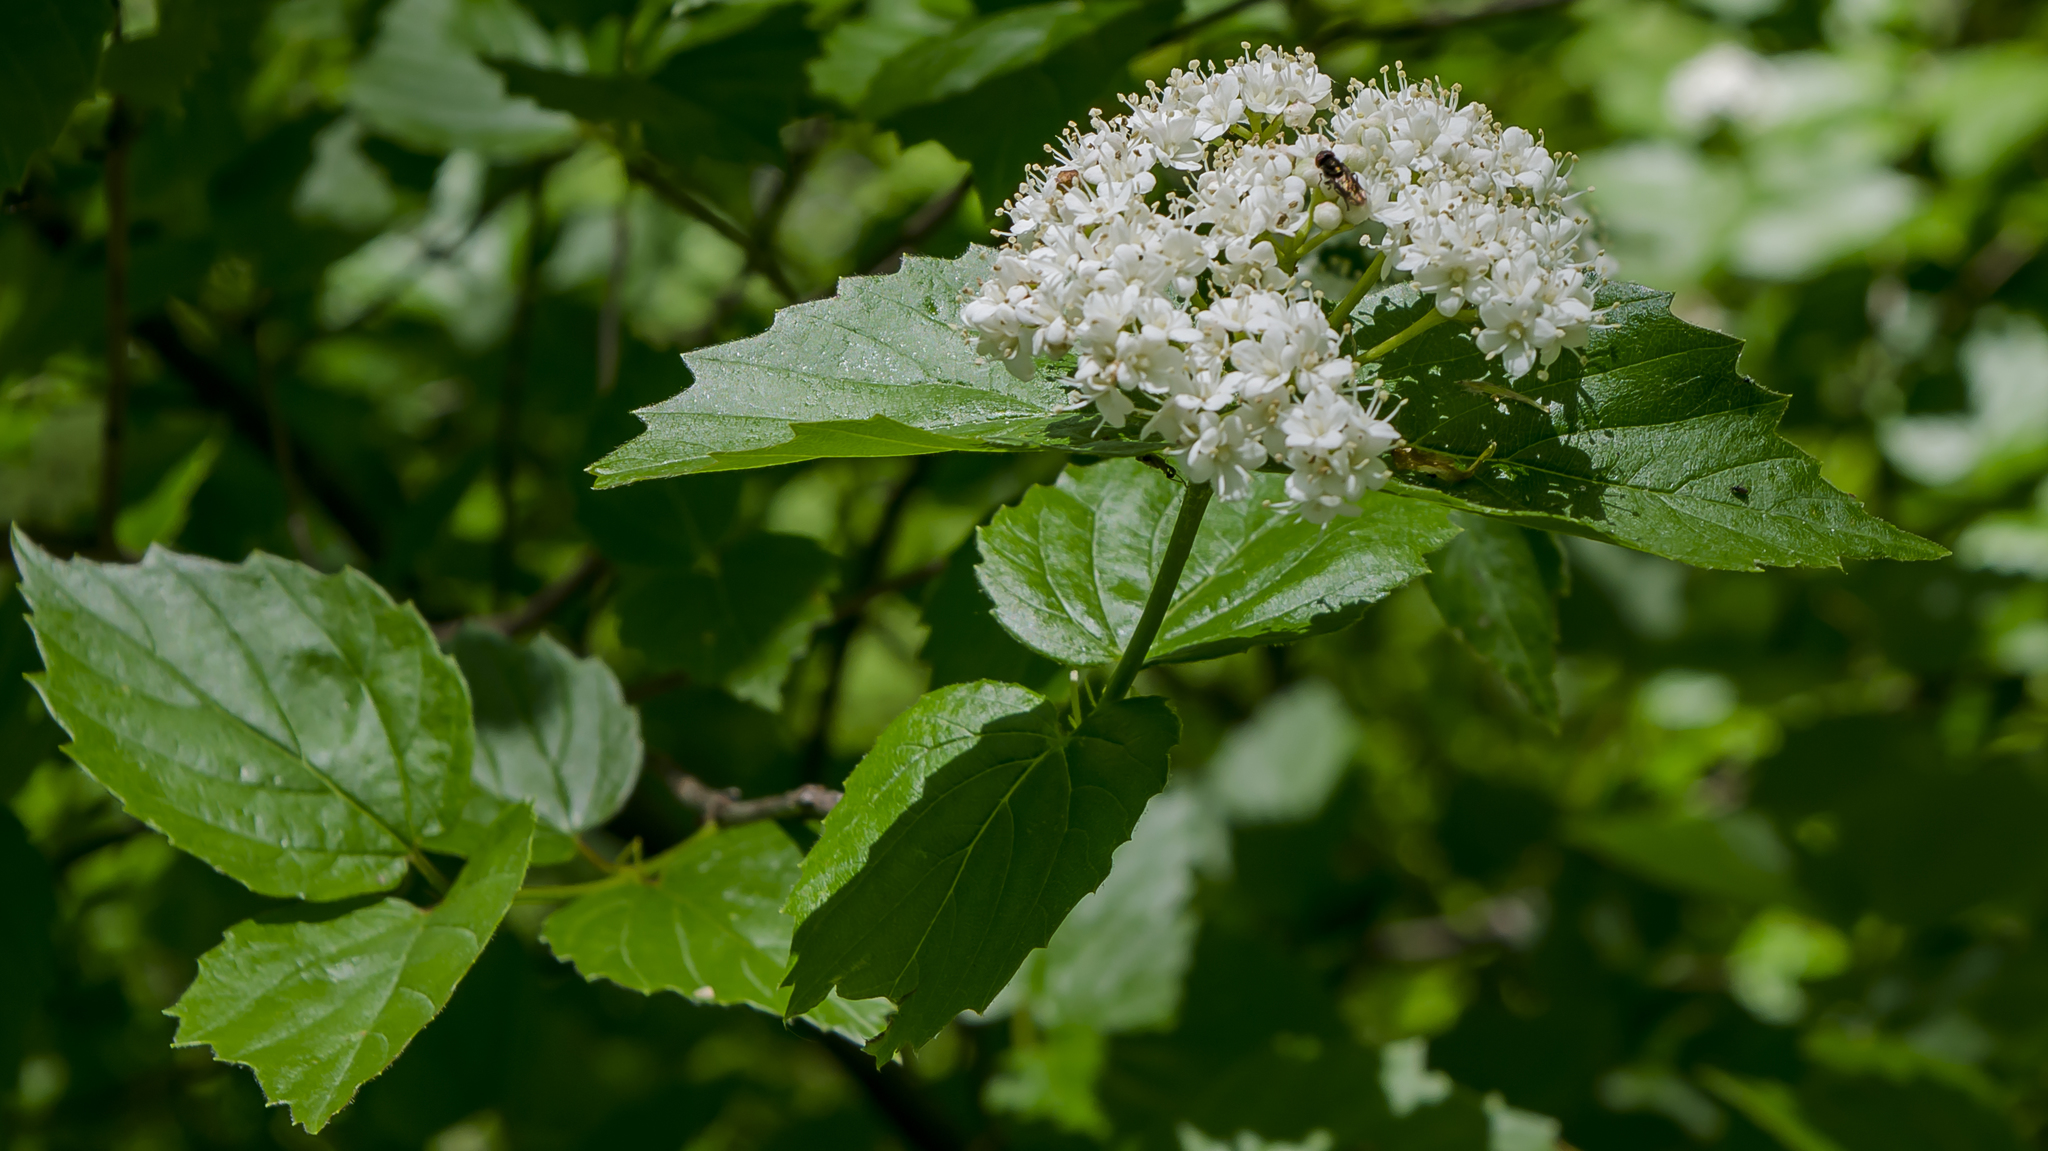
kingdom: Plantae
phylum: Tracheophyta
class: Magnoliopsida
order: Dipsacales
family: Viburnaceae
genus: Viburnum
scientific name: Viburnum rafinesqueanum
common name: Downy arrow-wood
